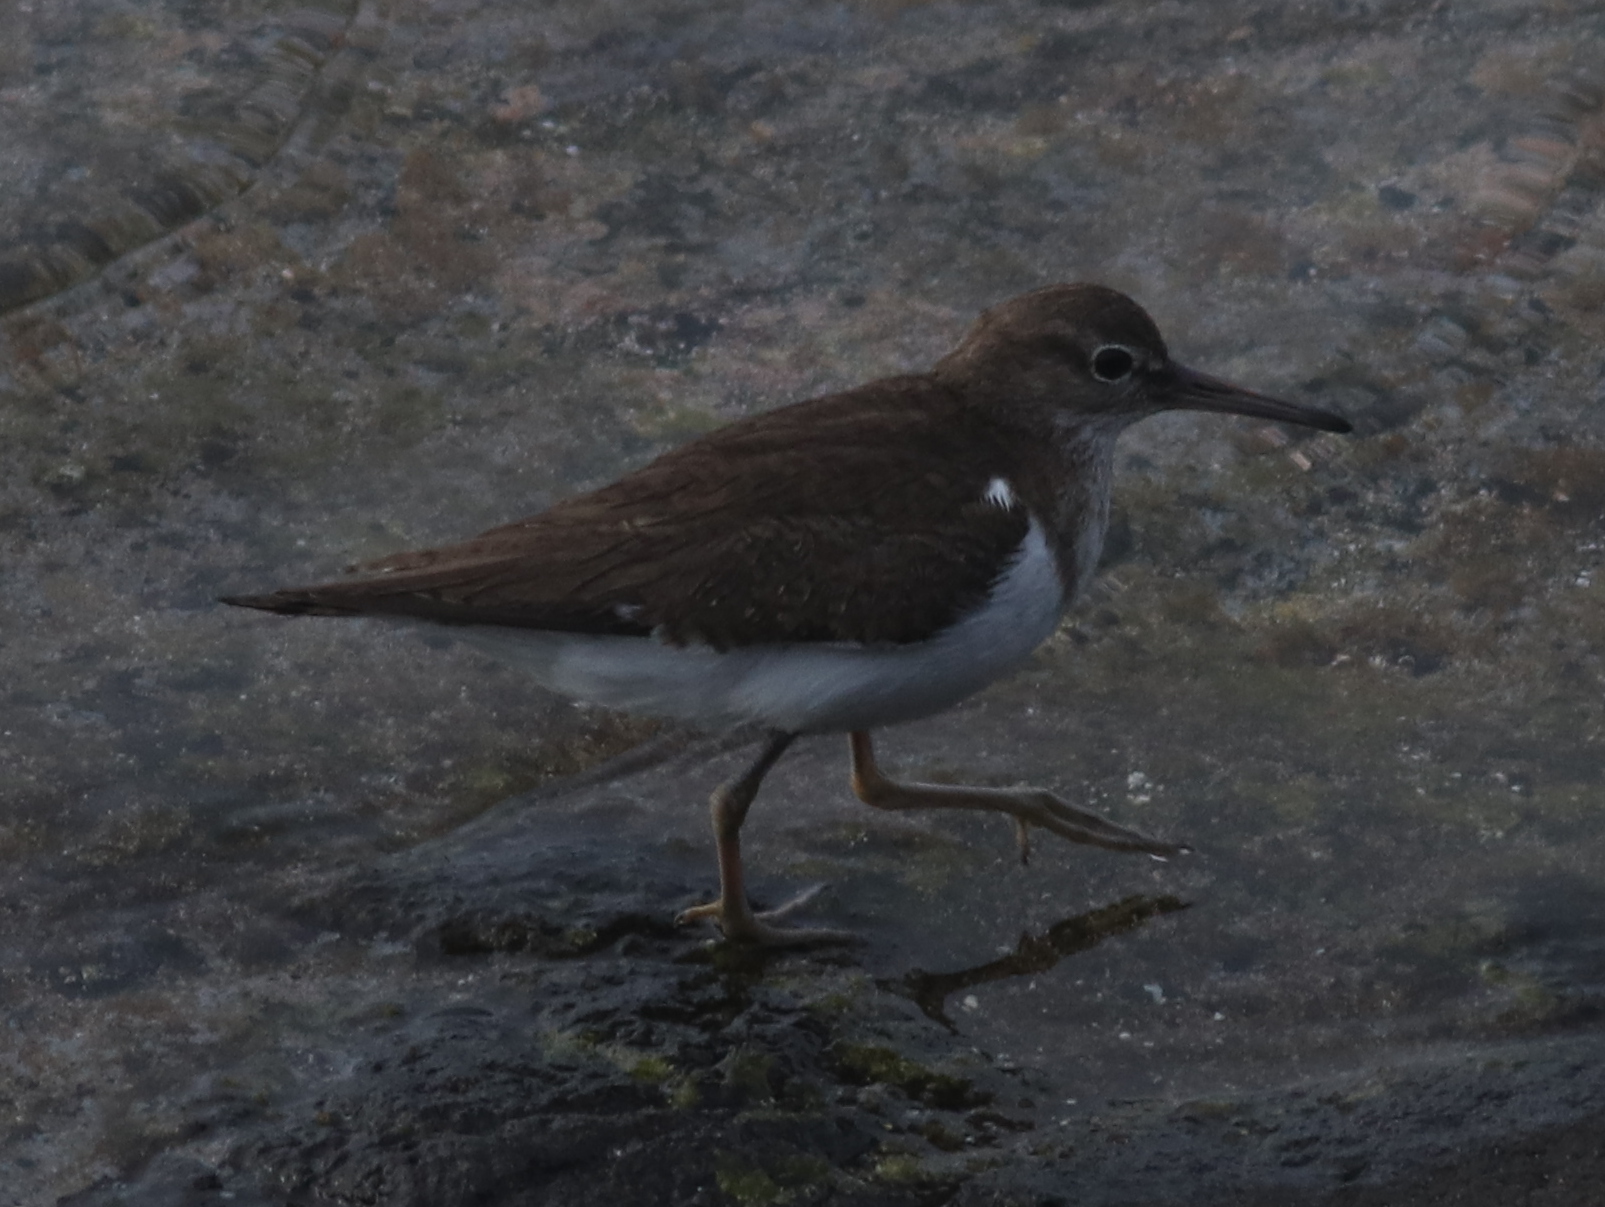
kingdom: Animalia
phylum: Chordata
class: Aves
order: Charadriiformes
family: Scolopacidae
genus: Actitis
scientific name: Actitis hypoleucos
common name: Common sandpiper
